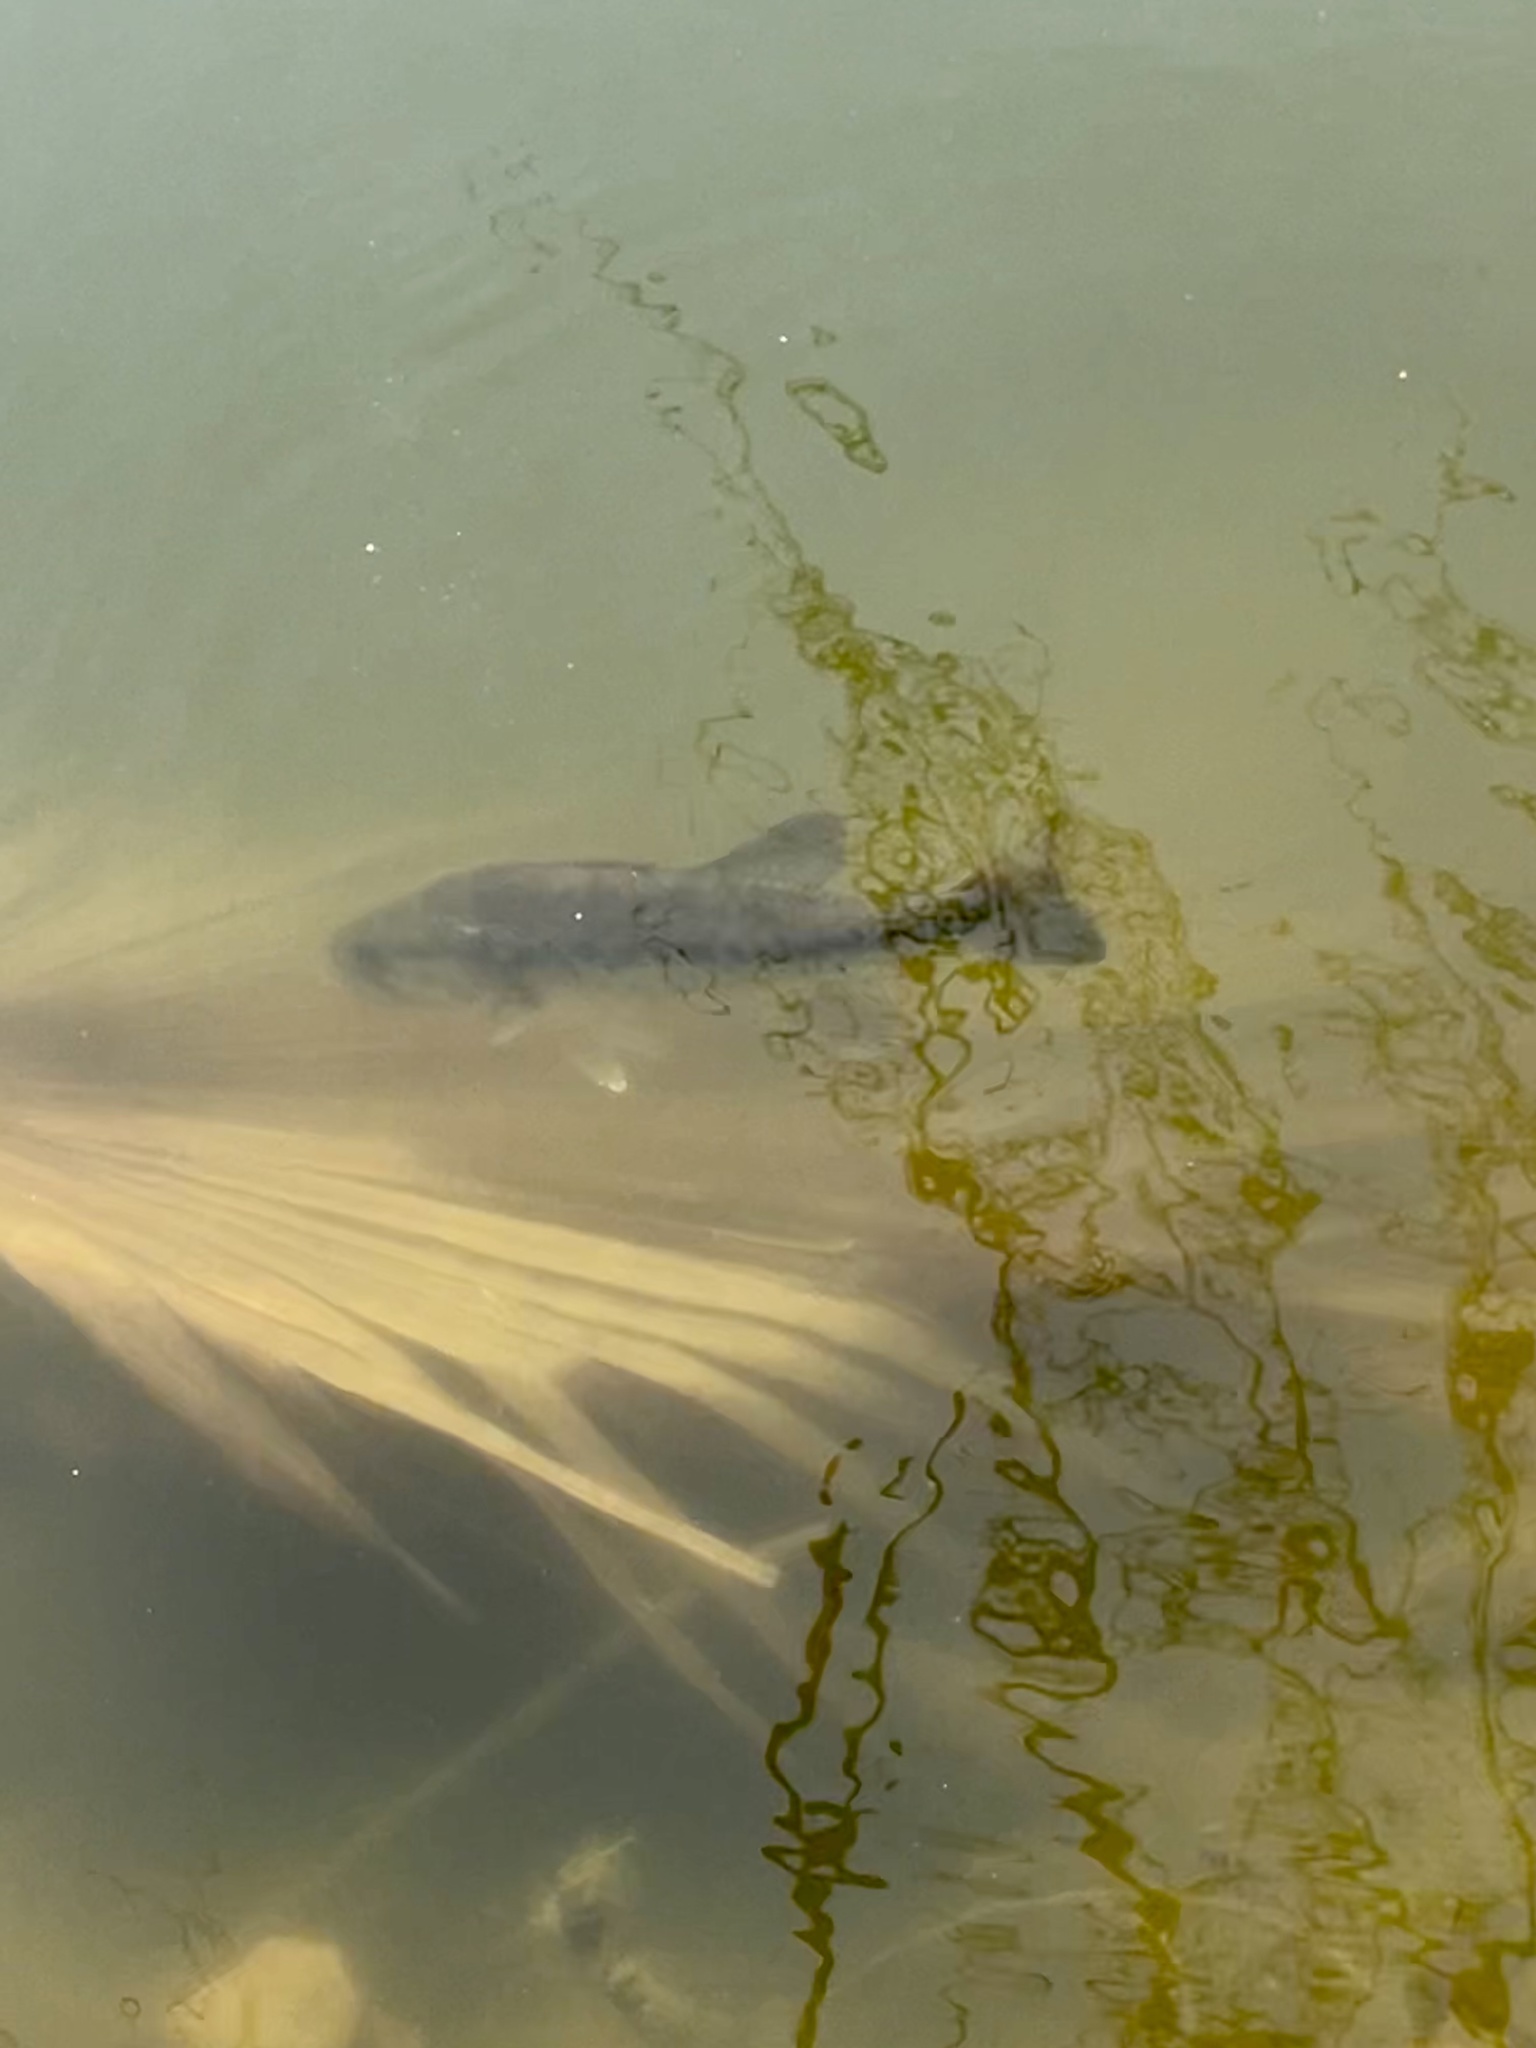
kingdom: Animalia
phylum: Chordata
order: Perciformes
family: Centrarchidae
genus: Micropterus
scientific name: Micropterus
